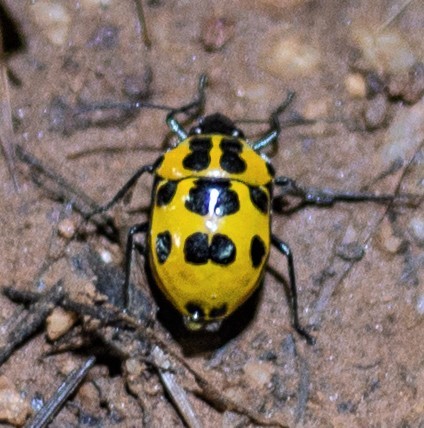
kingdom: Animalia
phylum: Arthropoda
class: Insecta
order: Hemiptera
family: Scutelleridae
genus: Augocoris
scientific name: Augocoris gomesii
